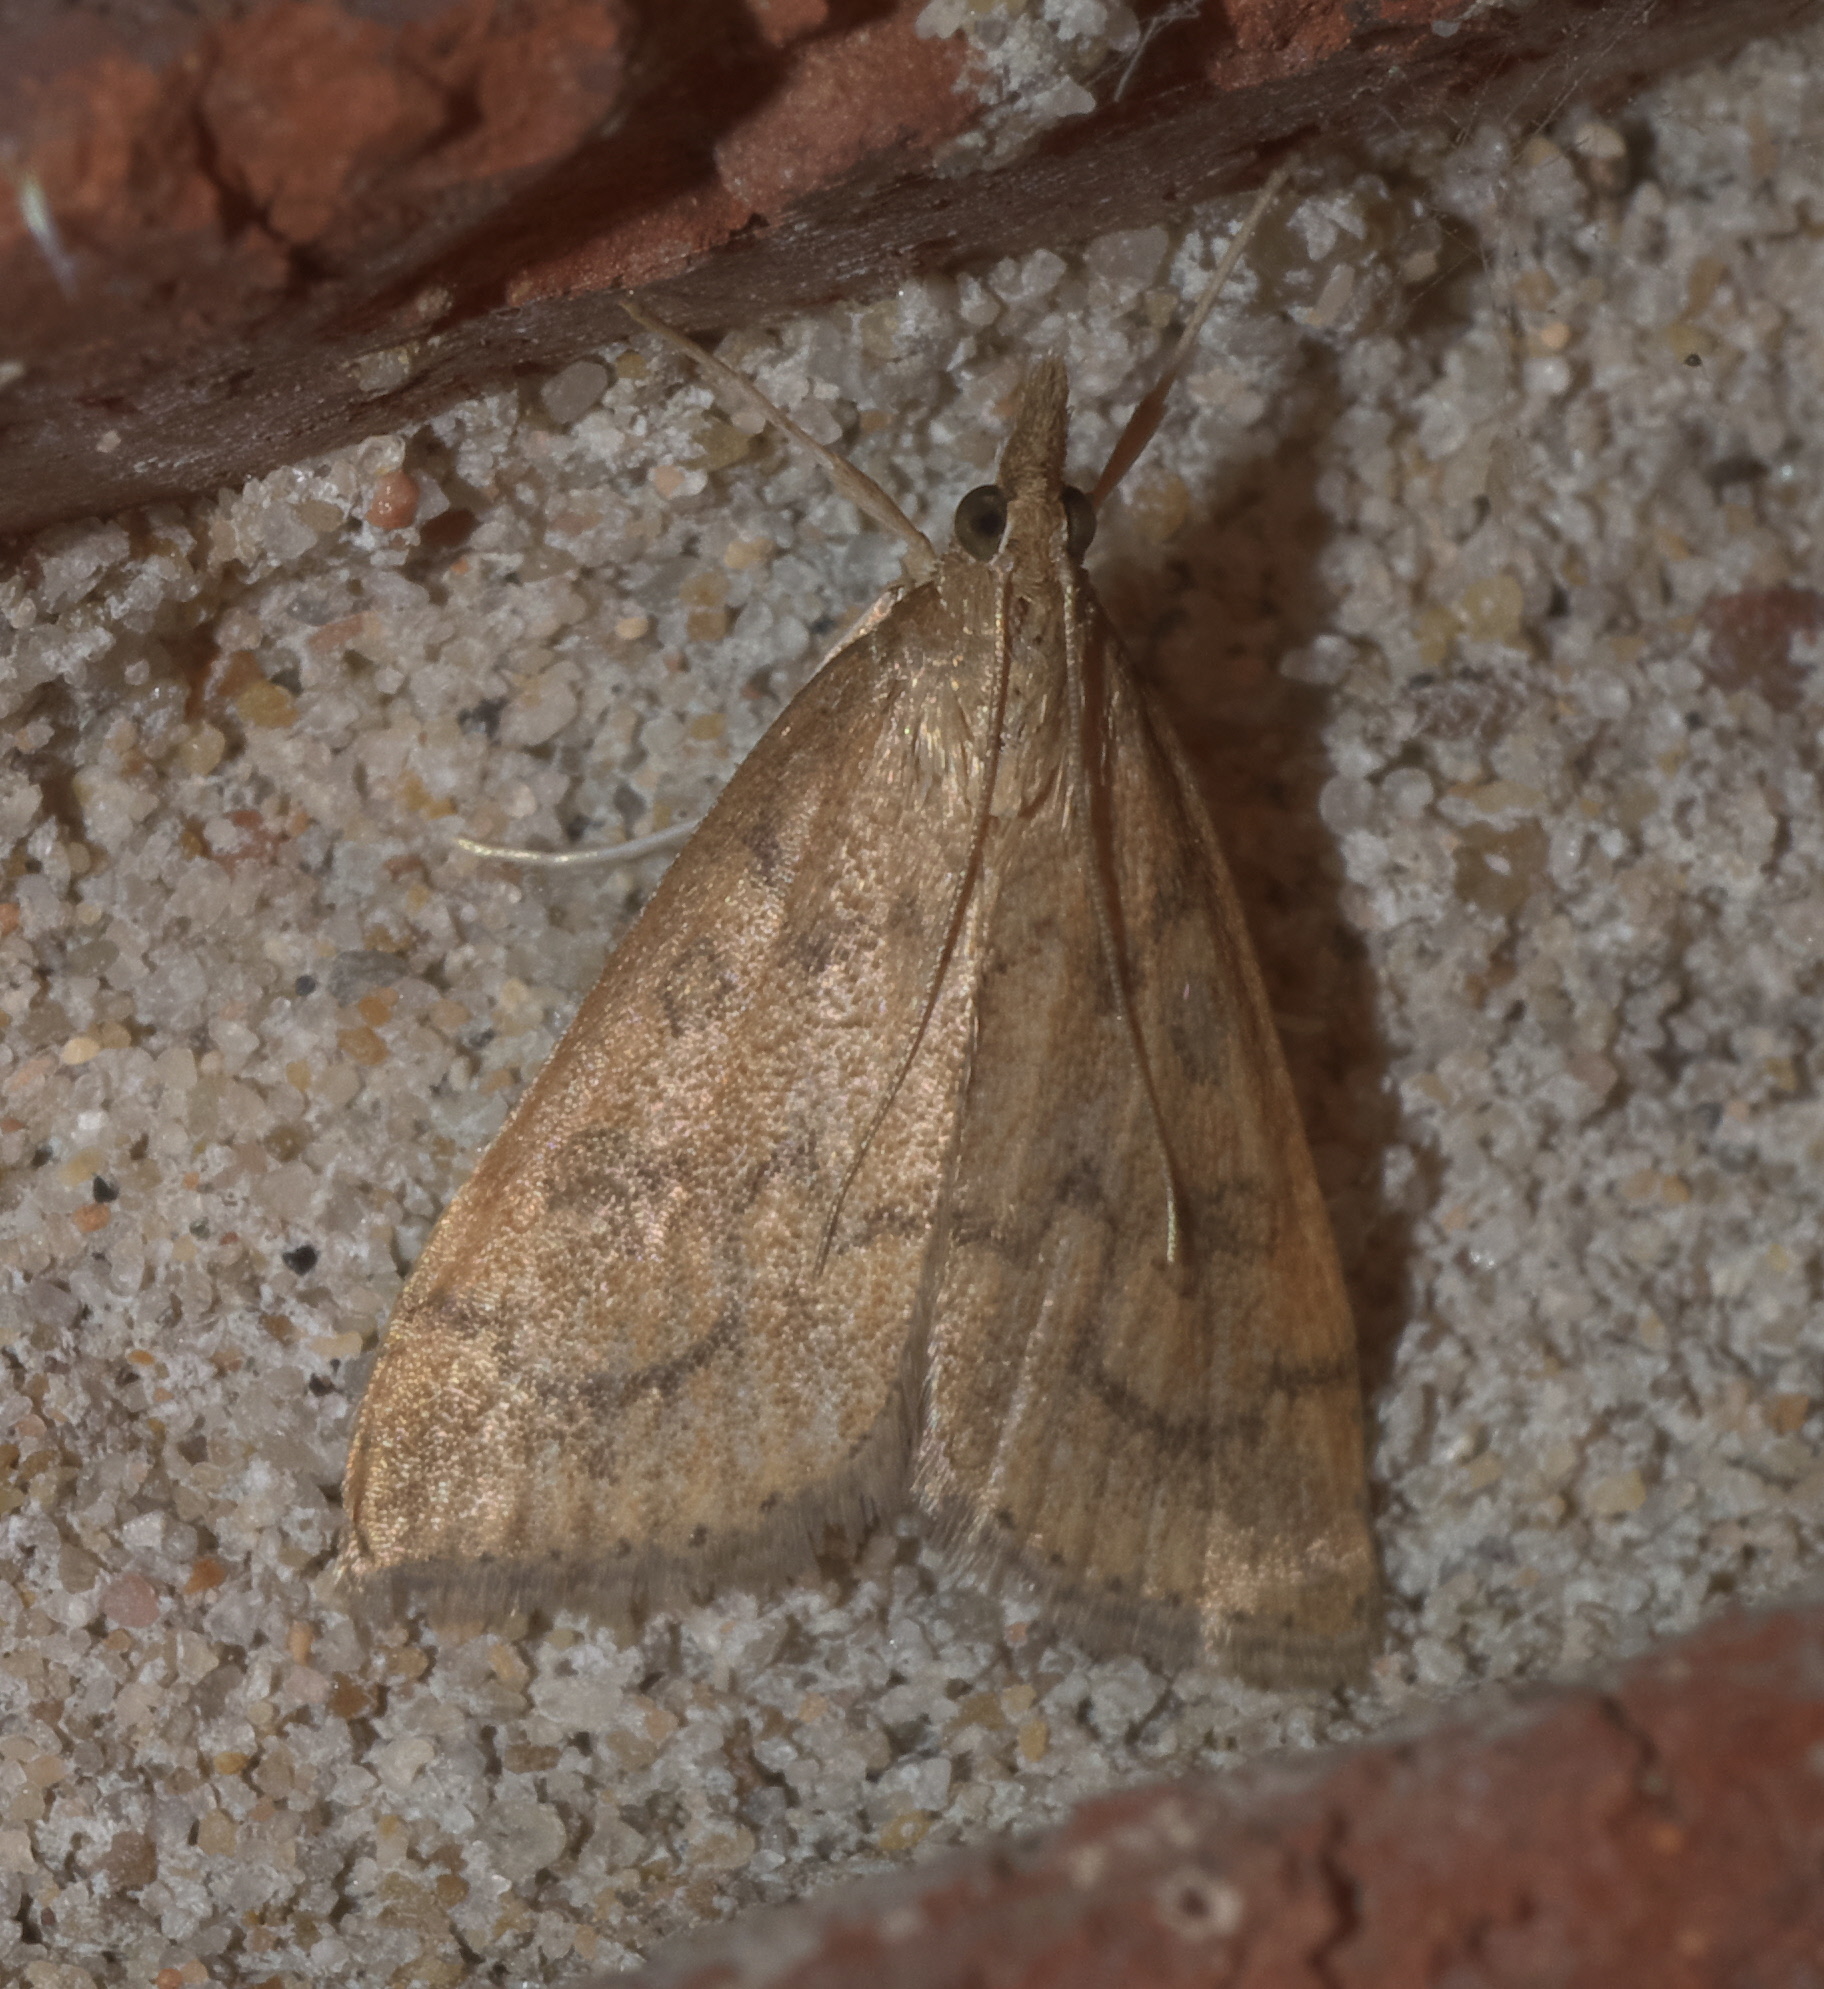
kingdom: Animalia
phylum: Arthropoda
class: Insecta
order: Lepidoptera
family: Crambidae
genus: Udea
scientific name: Udea rubigalis
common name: Celery leaftier moth
